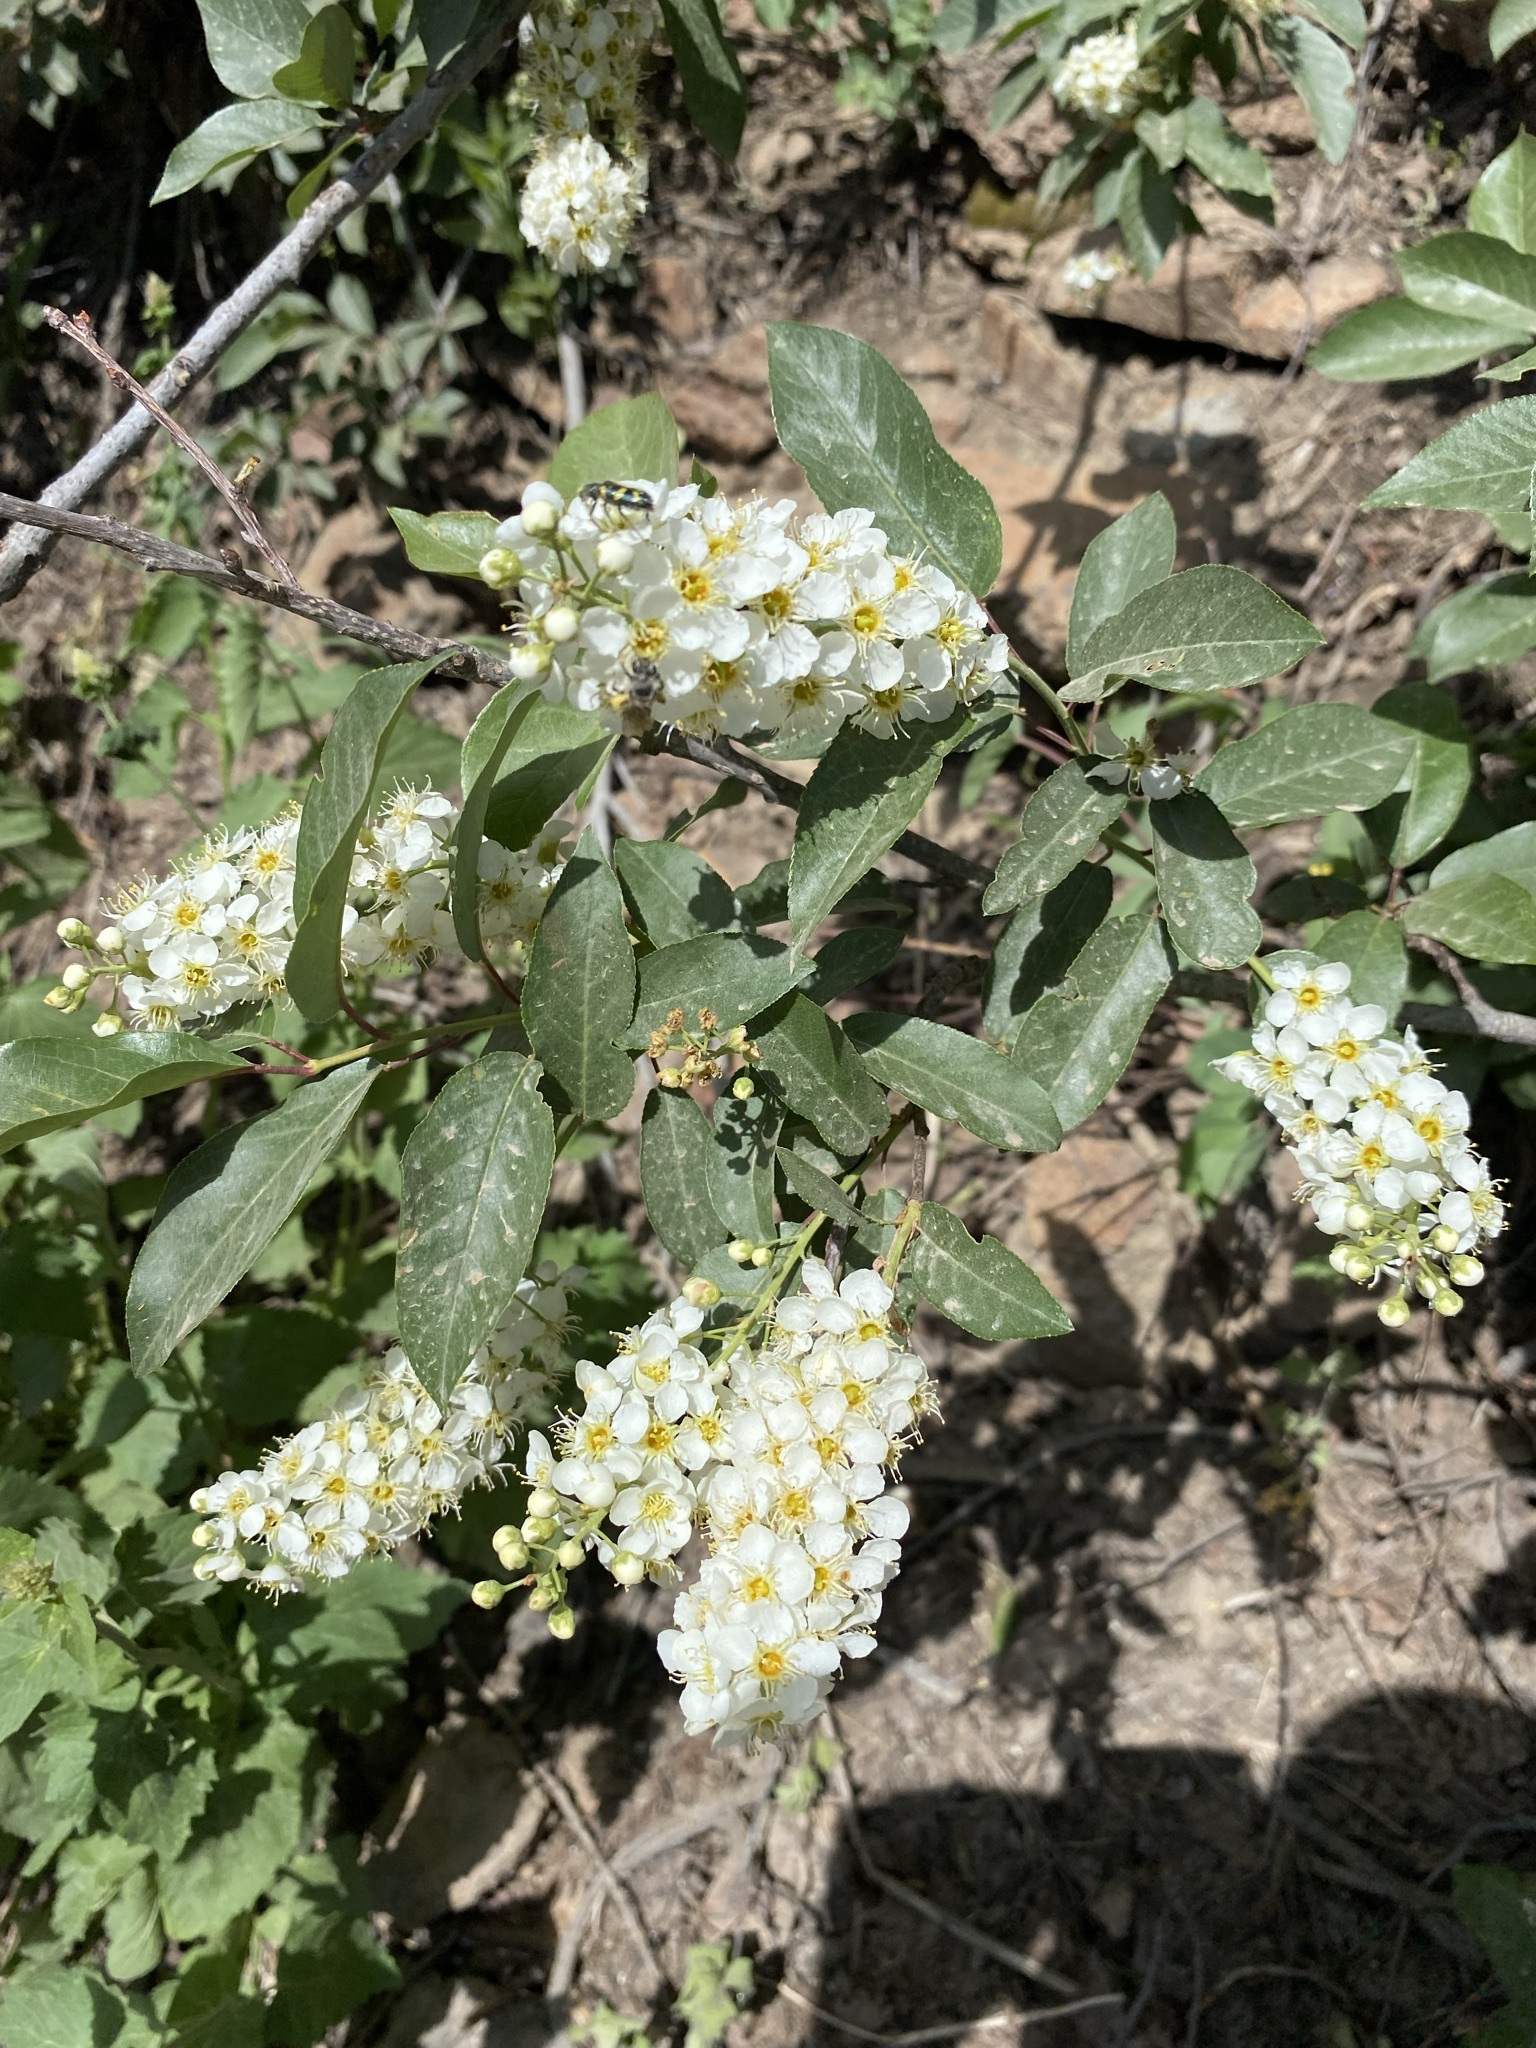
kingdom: Plantae
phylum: Tracheophyta
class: Magnoliopsida
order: Rosales
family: Rosaceae
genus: Prunus
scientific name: Prunus virginiana
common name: Chokecherry
